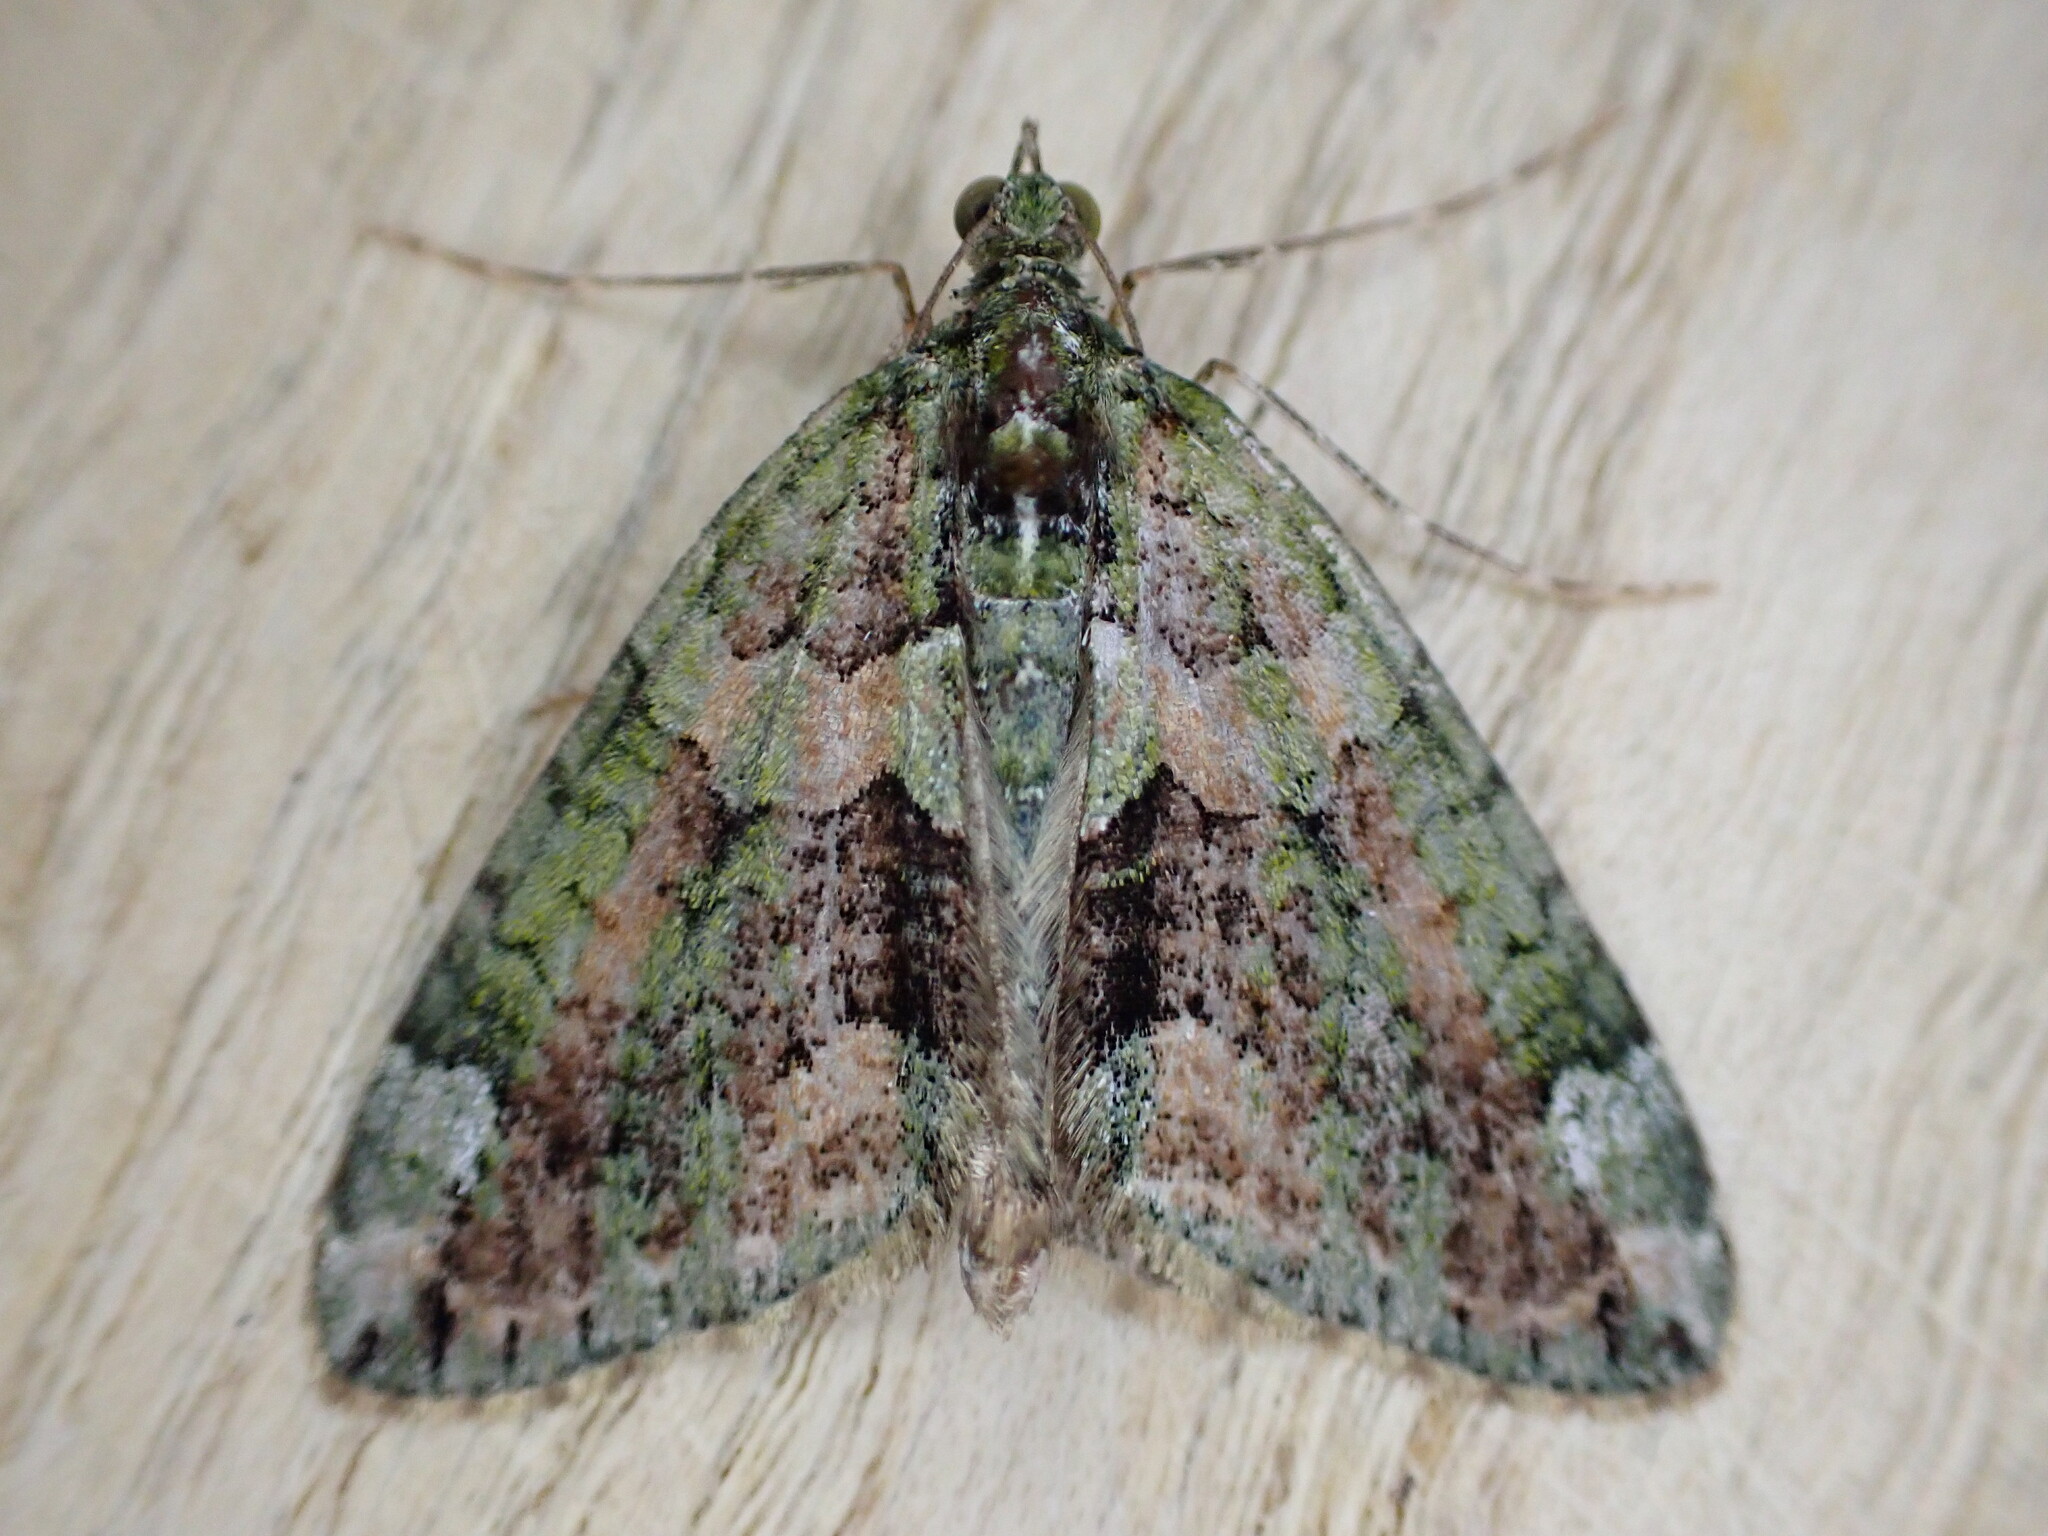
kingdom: Animalia
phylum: Arthropoda
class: Insecta
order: Lepidoptera
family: Geometridae
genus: Chloroclysta
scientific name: Chloroclysta siterata
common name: Red-green carpet
